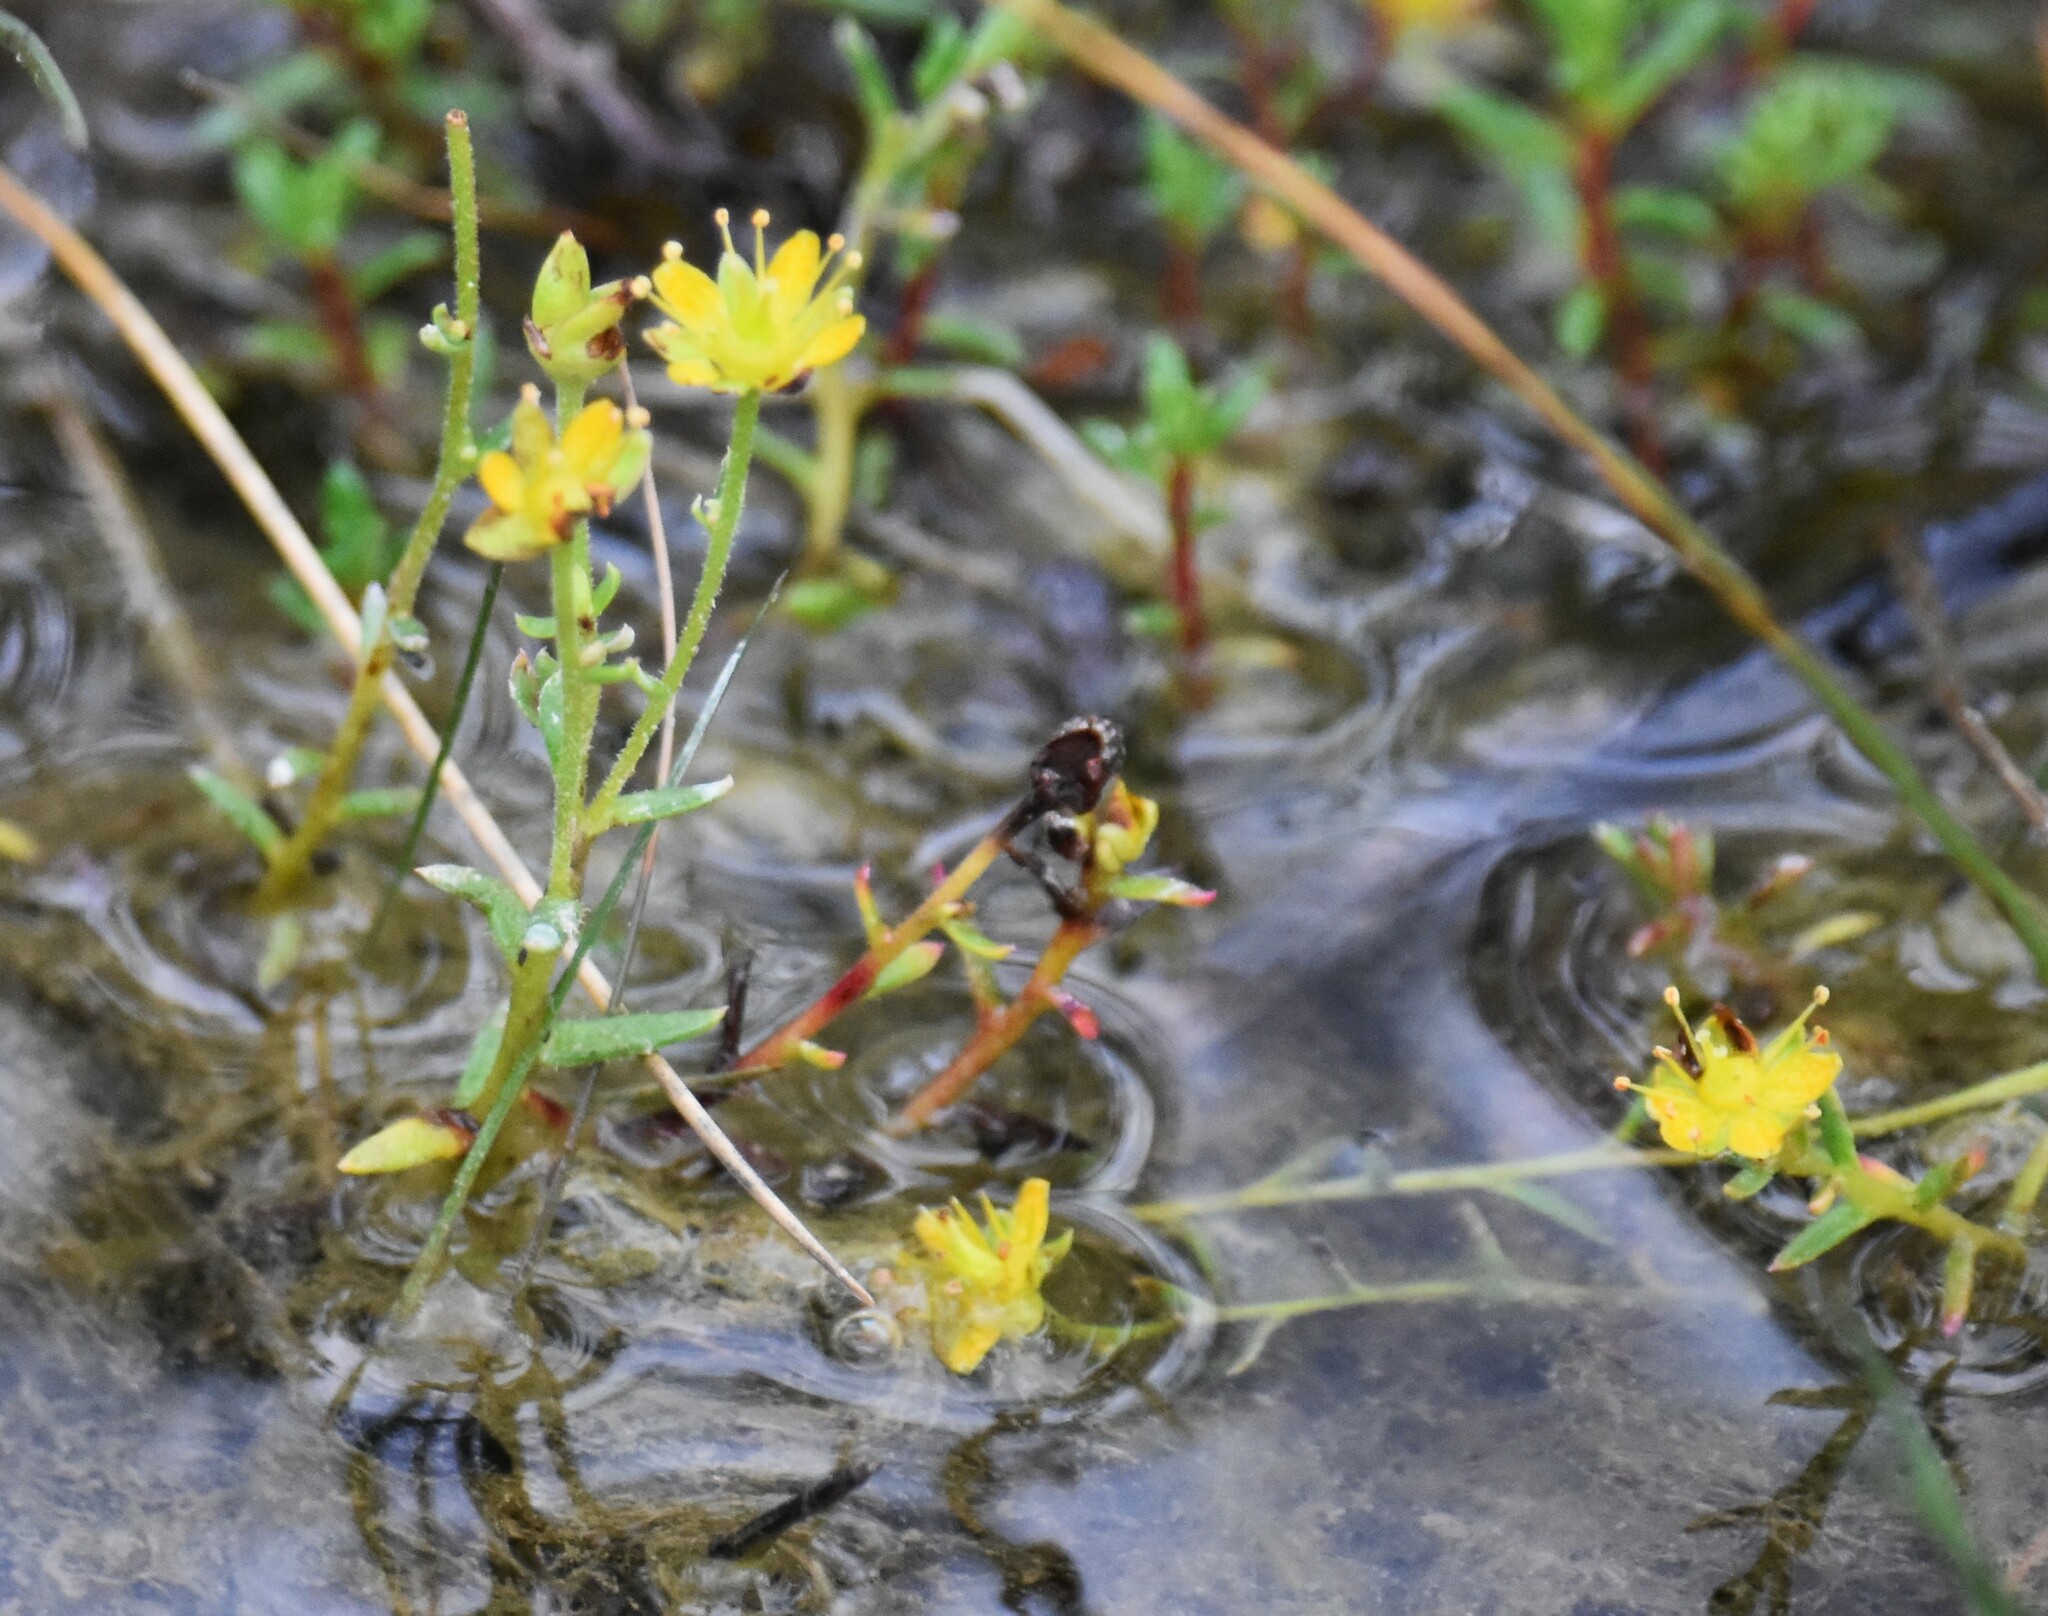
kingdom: Plantae
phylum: Tracheophyta
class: Magnoliopsida
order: Saxifragales
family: Saxifragaceae
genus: Saxifraga
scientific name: Saxifraga aizoides
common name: Yellow mountain saxifrage
